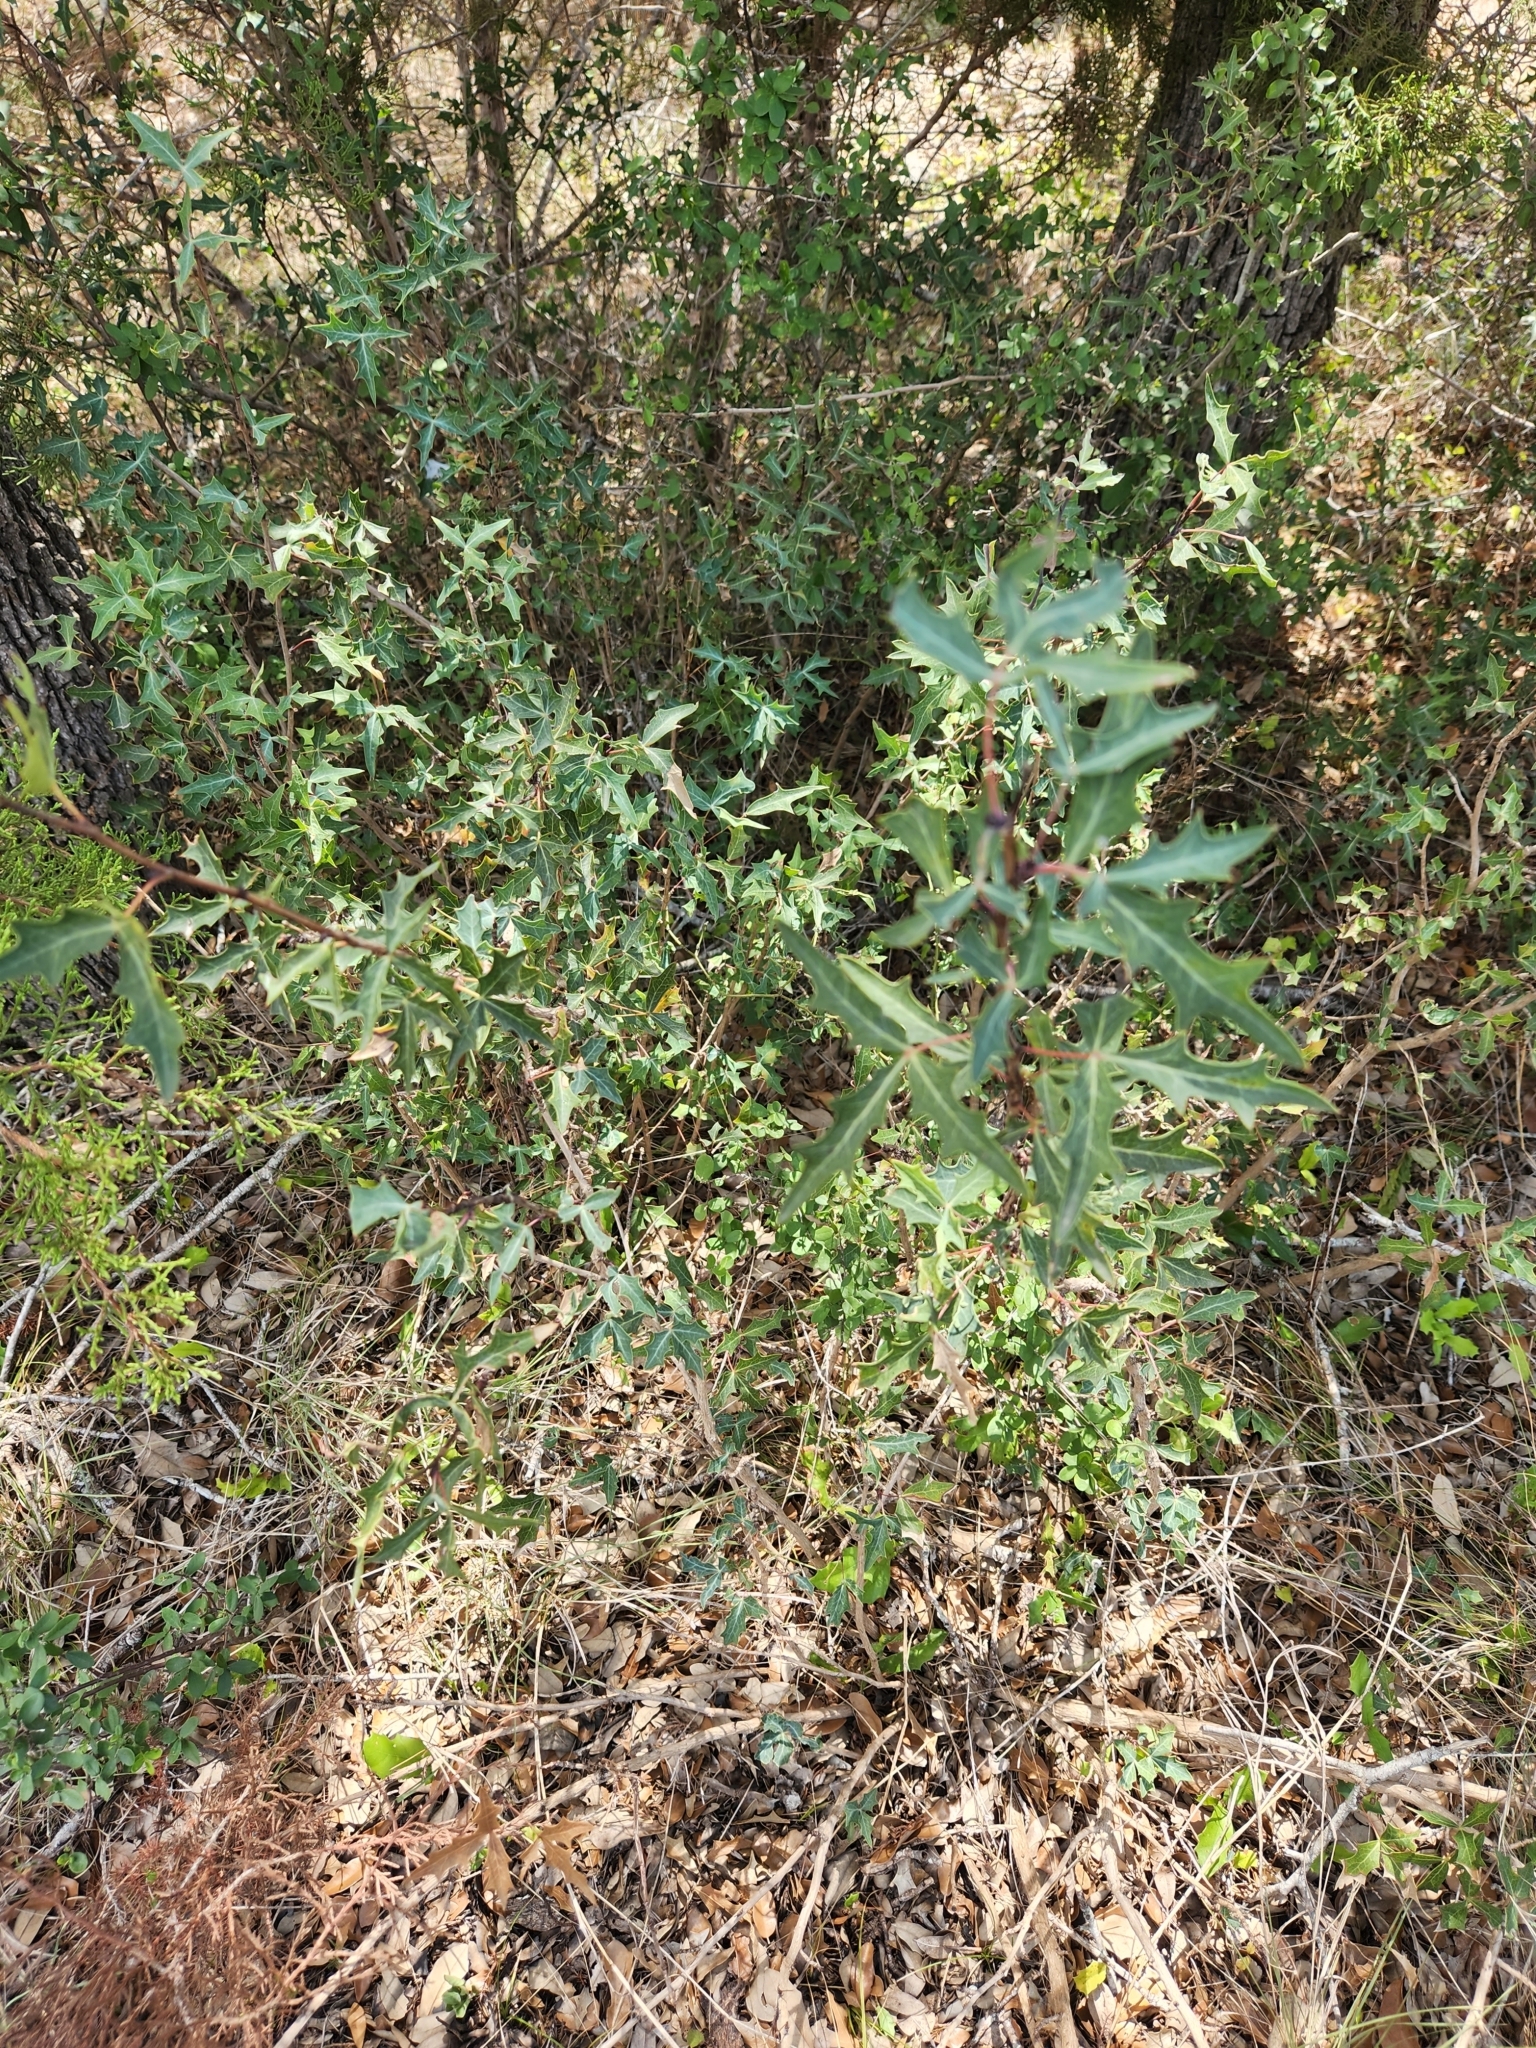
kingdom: Plantae
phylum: Tracheophyta
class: Magnoliopsida
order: Ranunculales
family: Berberidaceae
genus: Alloberberis
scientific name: Alloberberis trifoliolata
